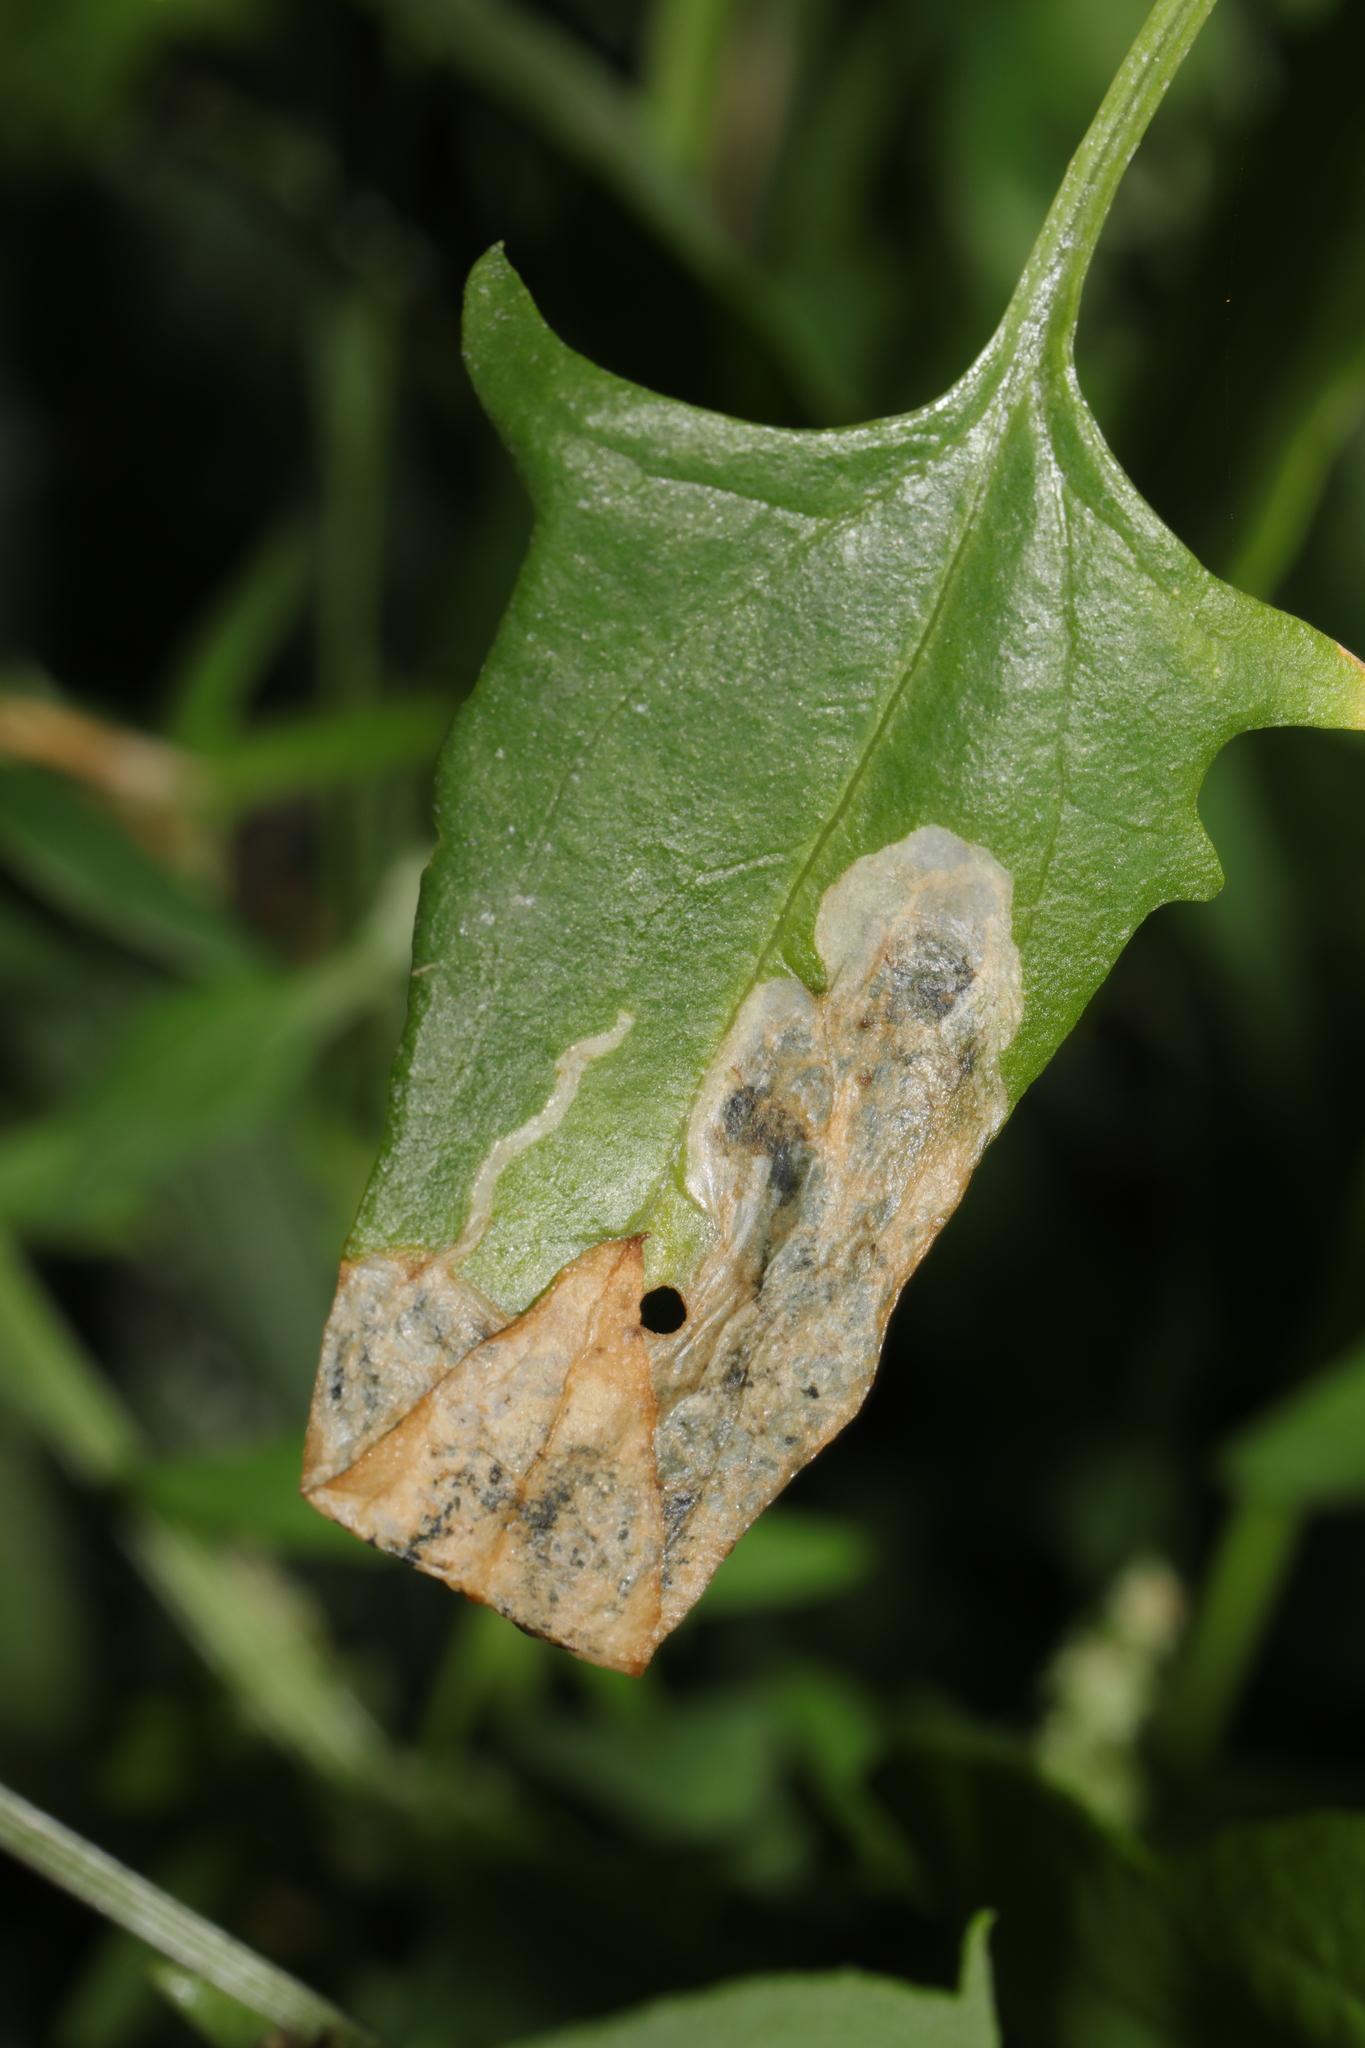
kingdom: Animalia
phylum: Arthropoda
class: Insecta
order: Lepidoptera
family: Gelechiidae
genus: Chrysoesthia
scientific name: Chrysoesthia sexguttella
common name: Moth
